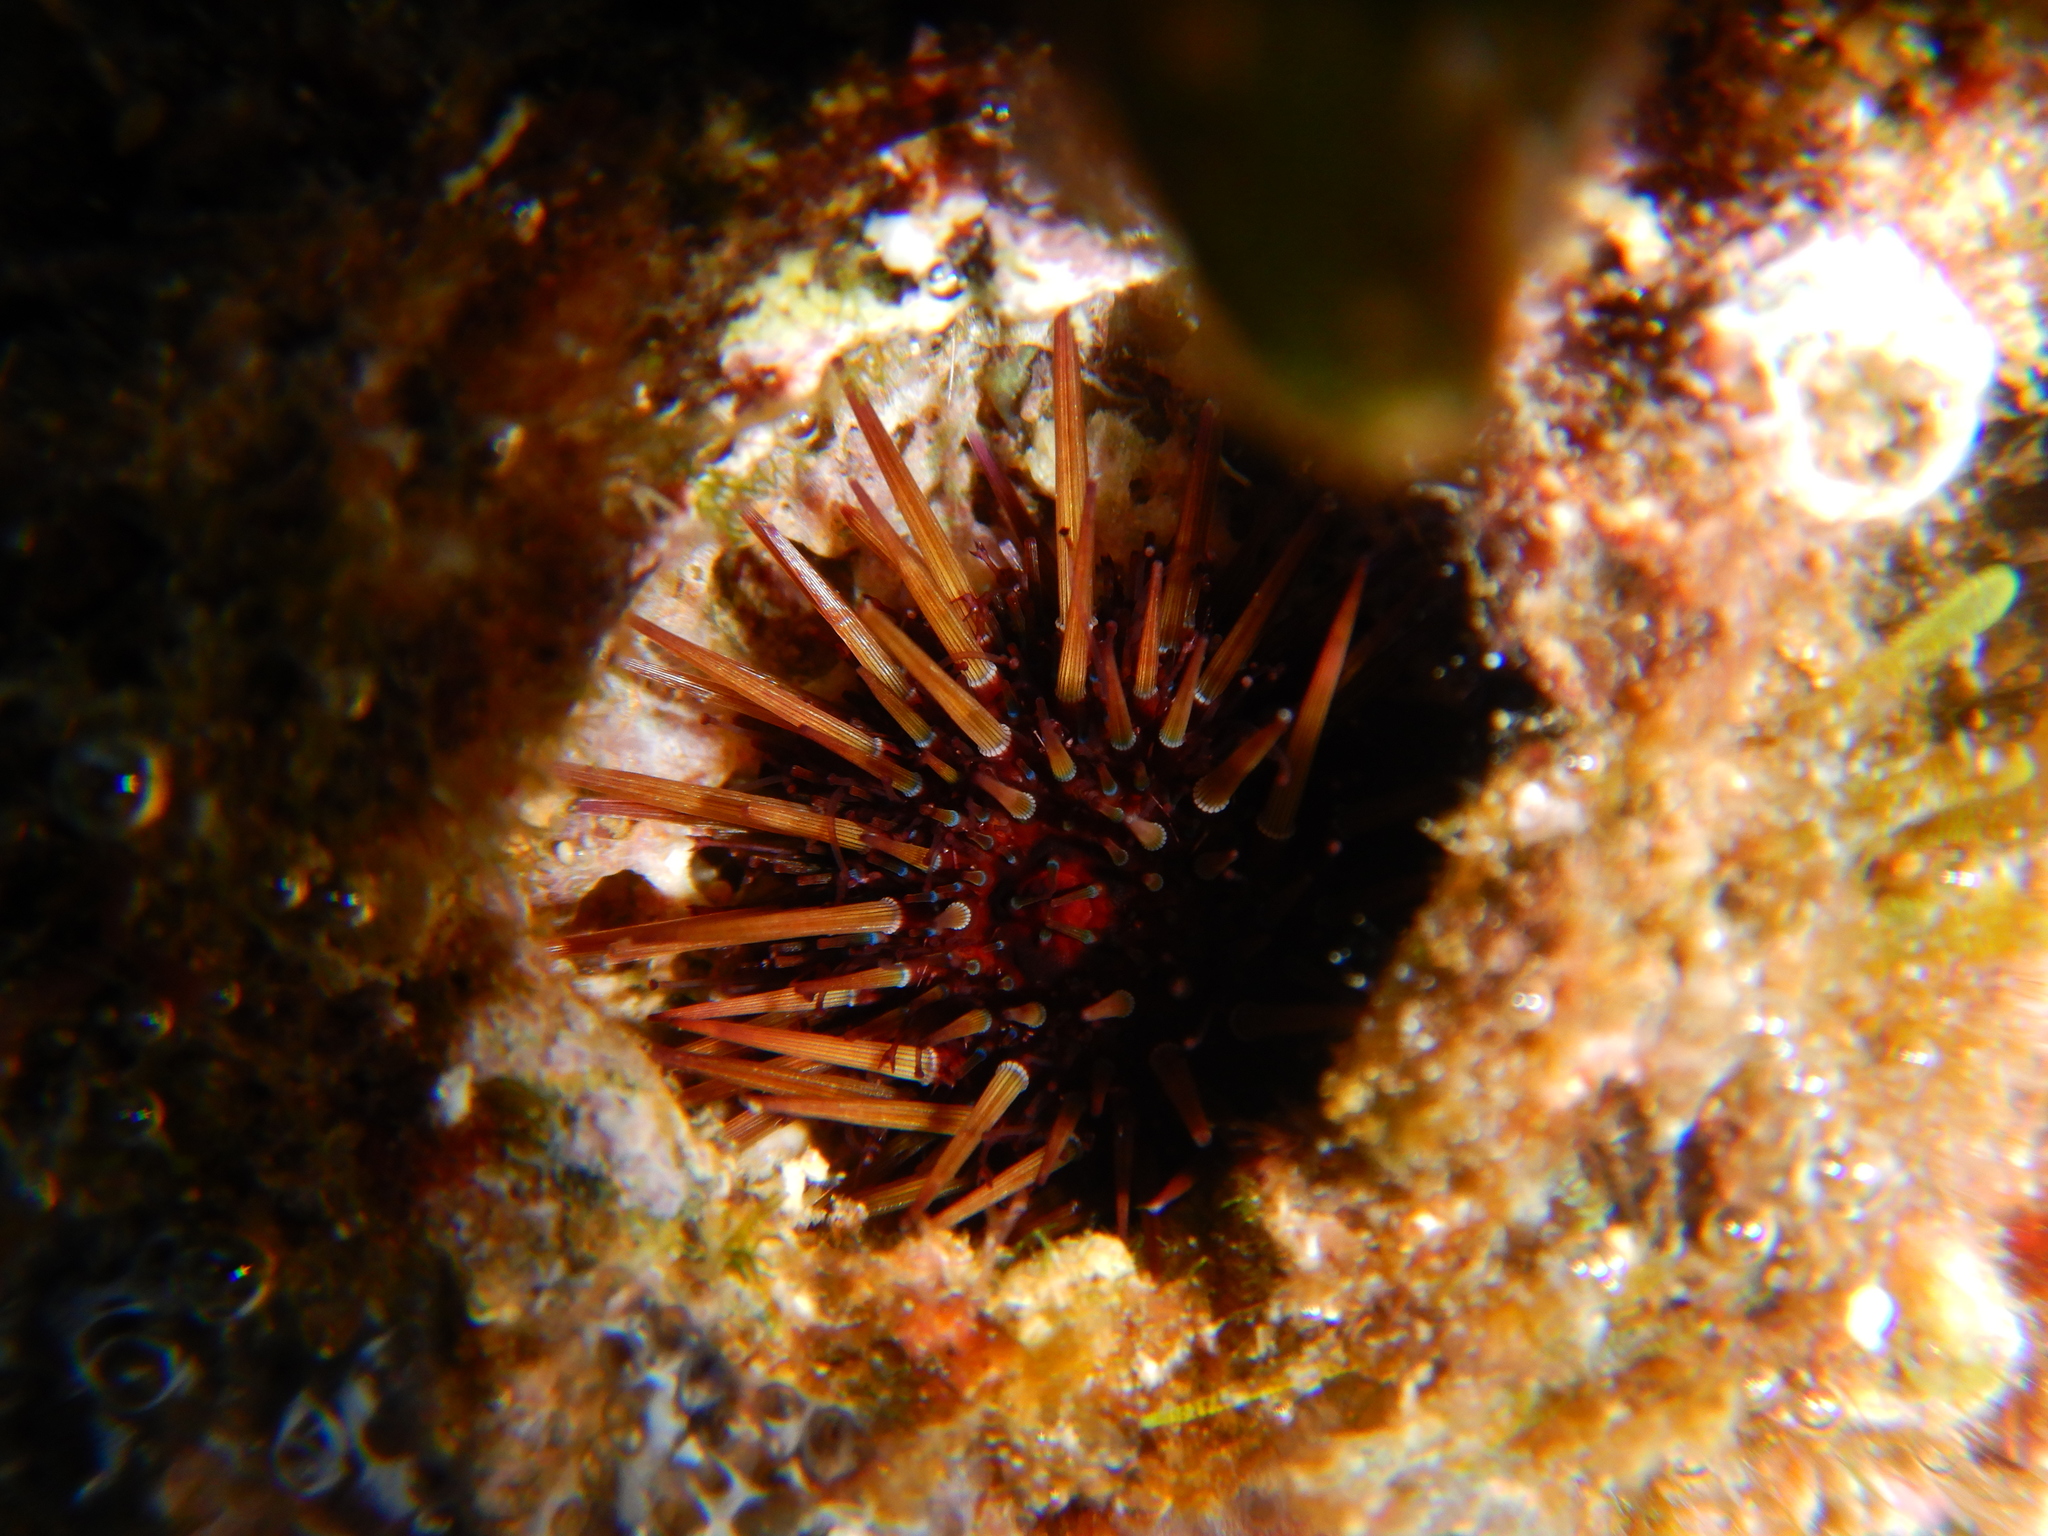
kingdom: Animalia
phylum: Echinodermata
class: Echinoidea
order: Camarodonta
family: Parechinidae
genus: Paracentrotus
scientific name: Paracentrotus lividus
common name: Purple sea urchin
